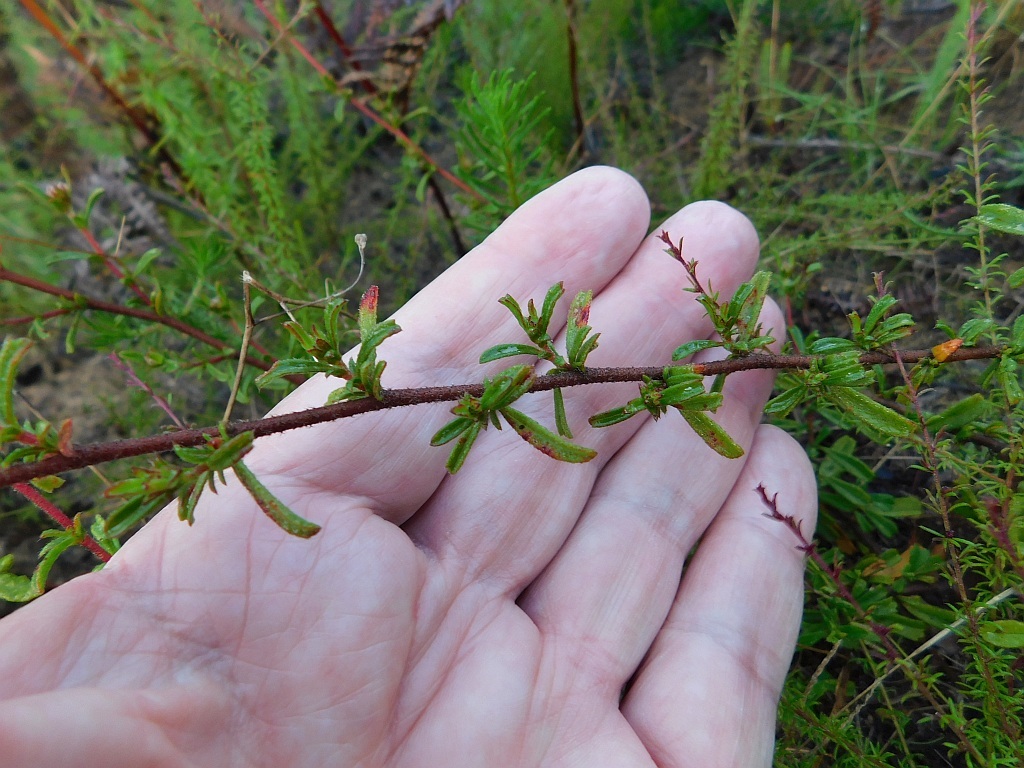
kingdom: Plantae
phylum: Tracheophyta
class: Magnoliopsida
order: Malvales
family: Malvaceae
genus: Hermannia
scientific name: Hermannia angularis
